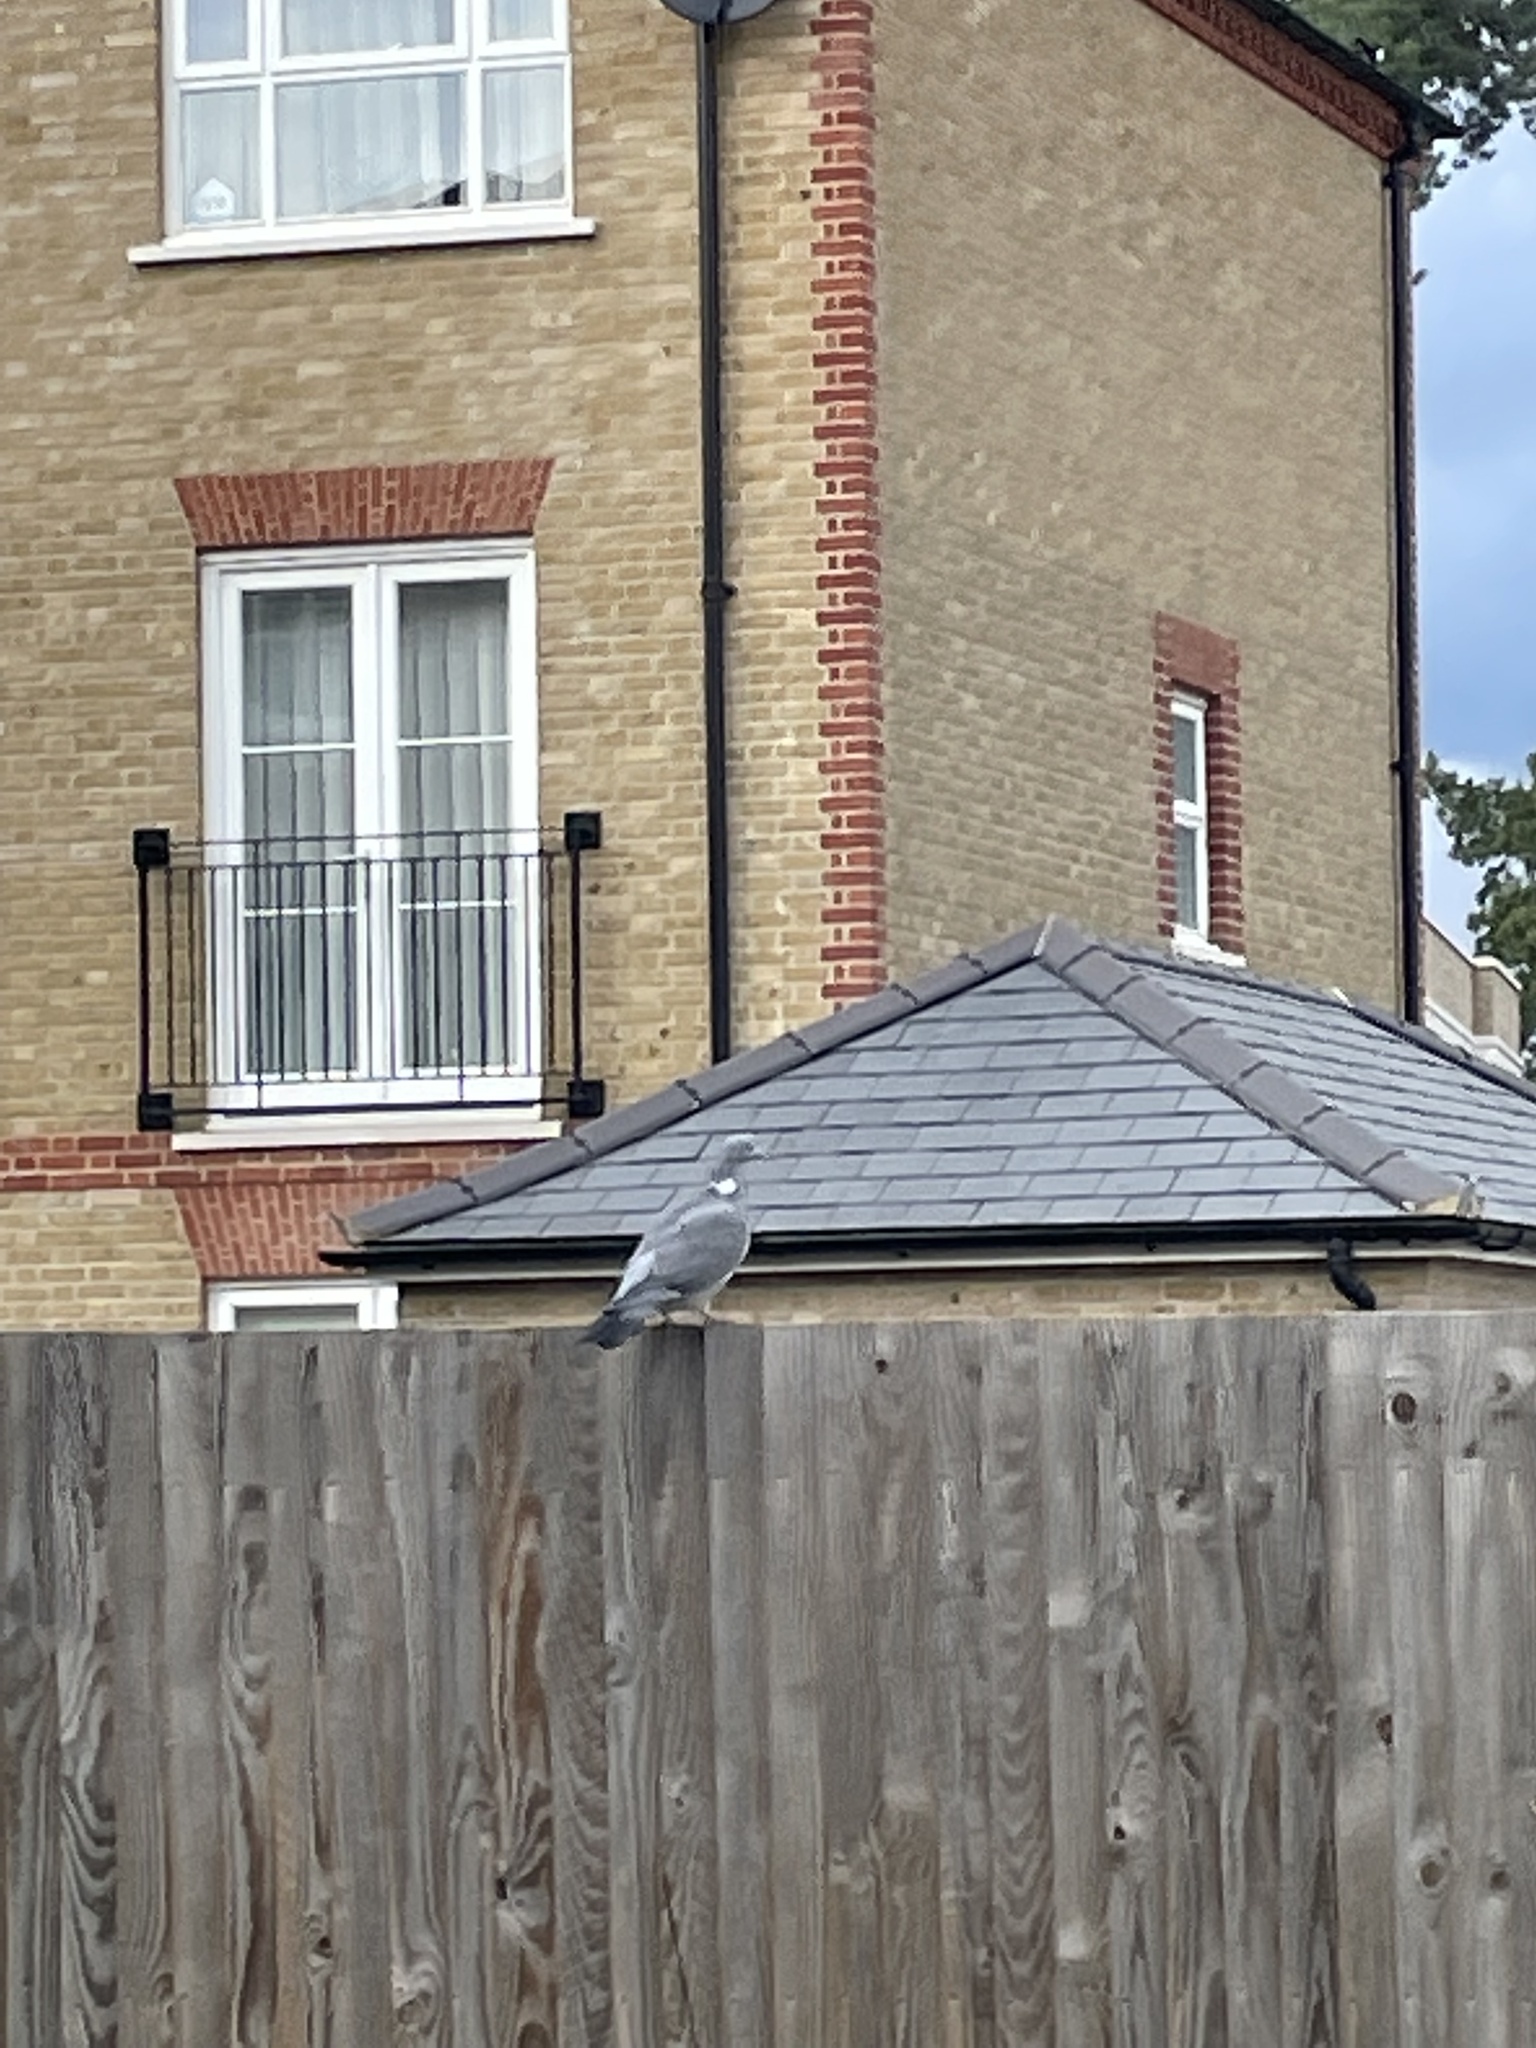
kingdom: Animalia
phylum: Chordata
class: Aves
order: Columbiformes
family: Columbidae
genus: Columba
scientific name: Columba palumbus
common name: Common wood pigeon
